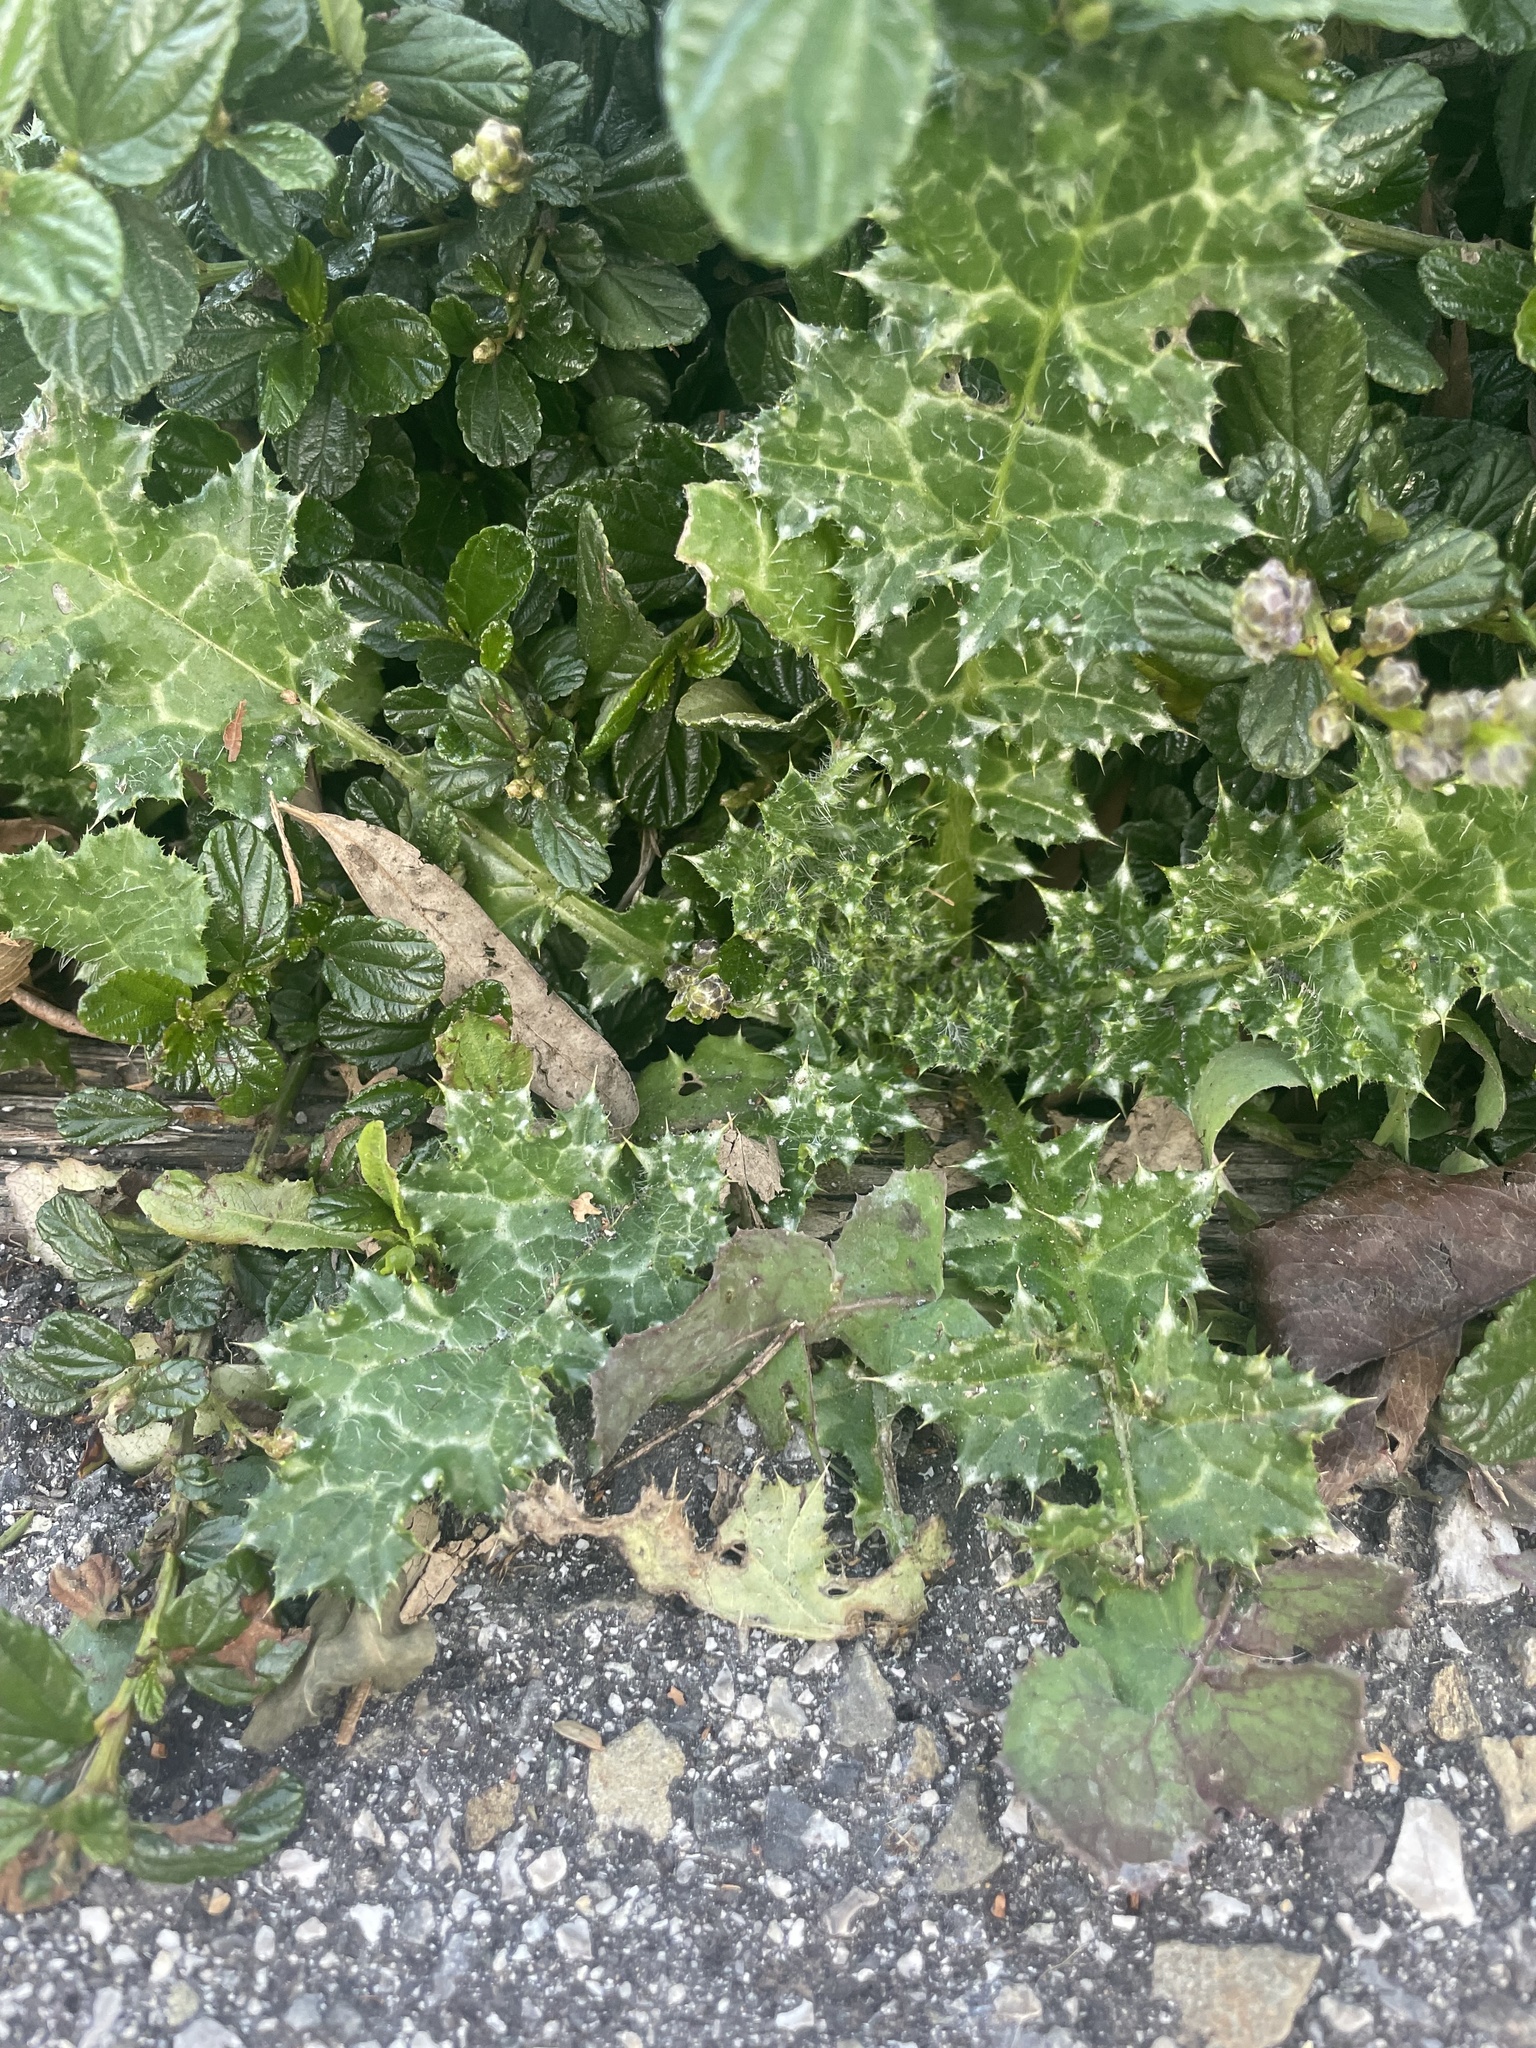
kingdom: Plantae
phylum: Tracheophyta
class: Magnoliopsida
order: Asterales
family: Asteraceae
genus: Carduus
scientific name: Carduus pycnocephalus
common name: Plymouth thistle
